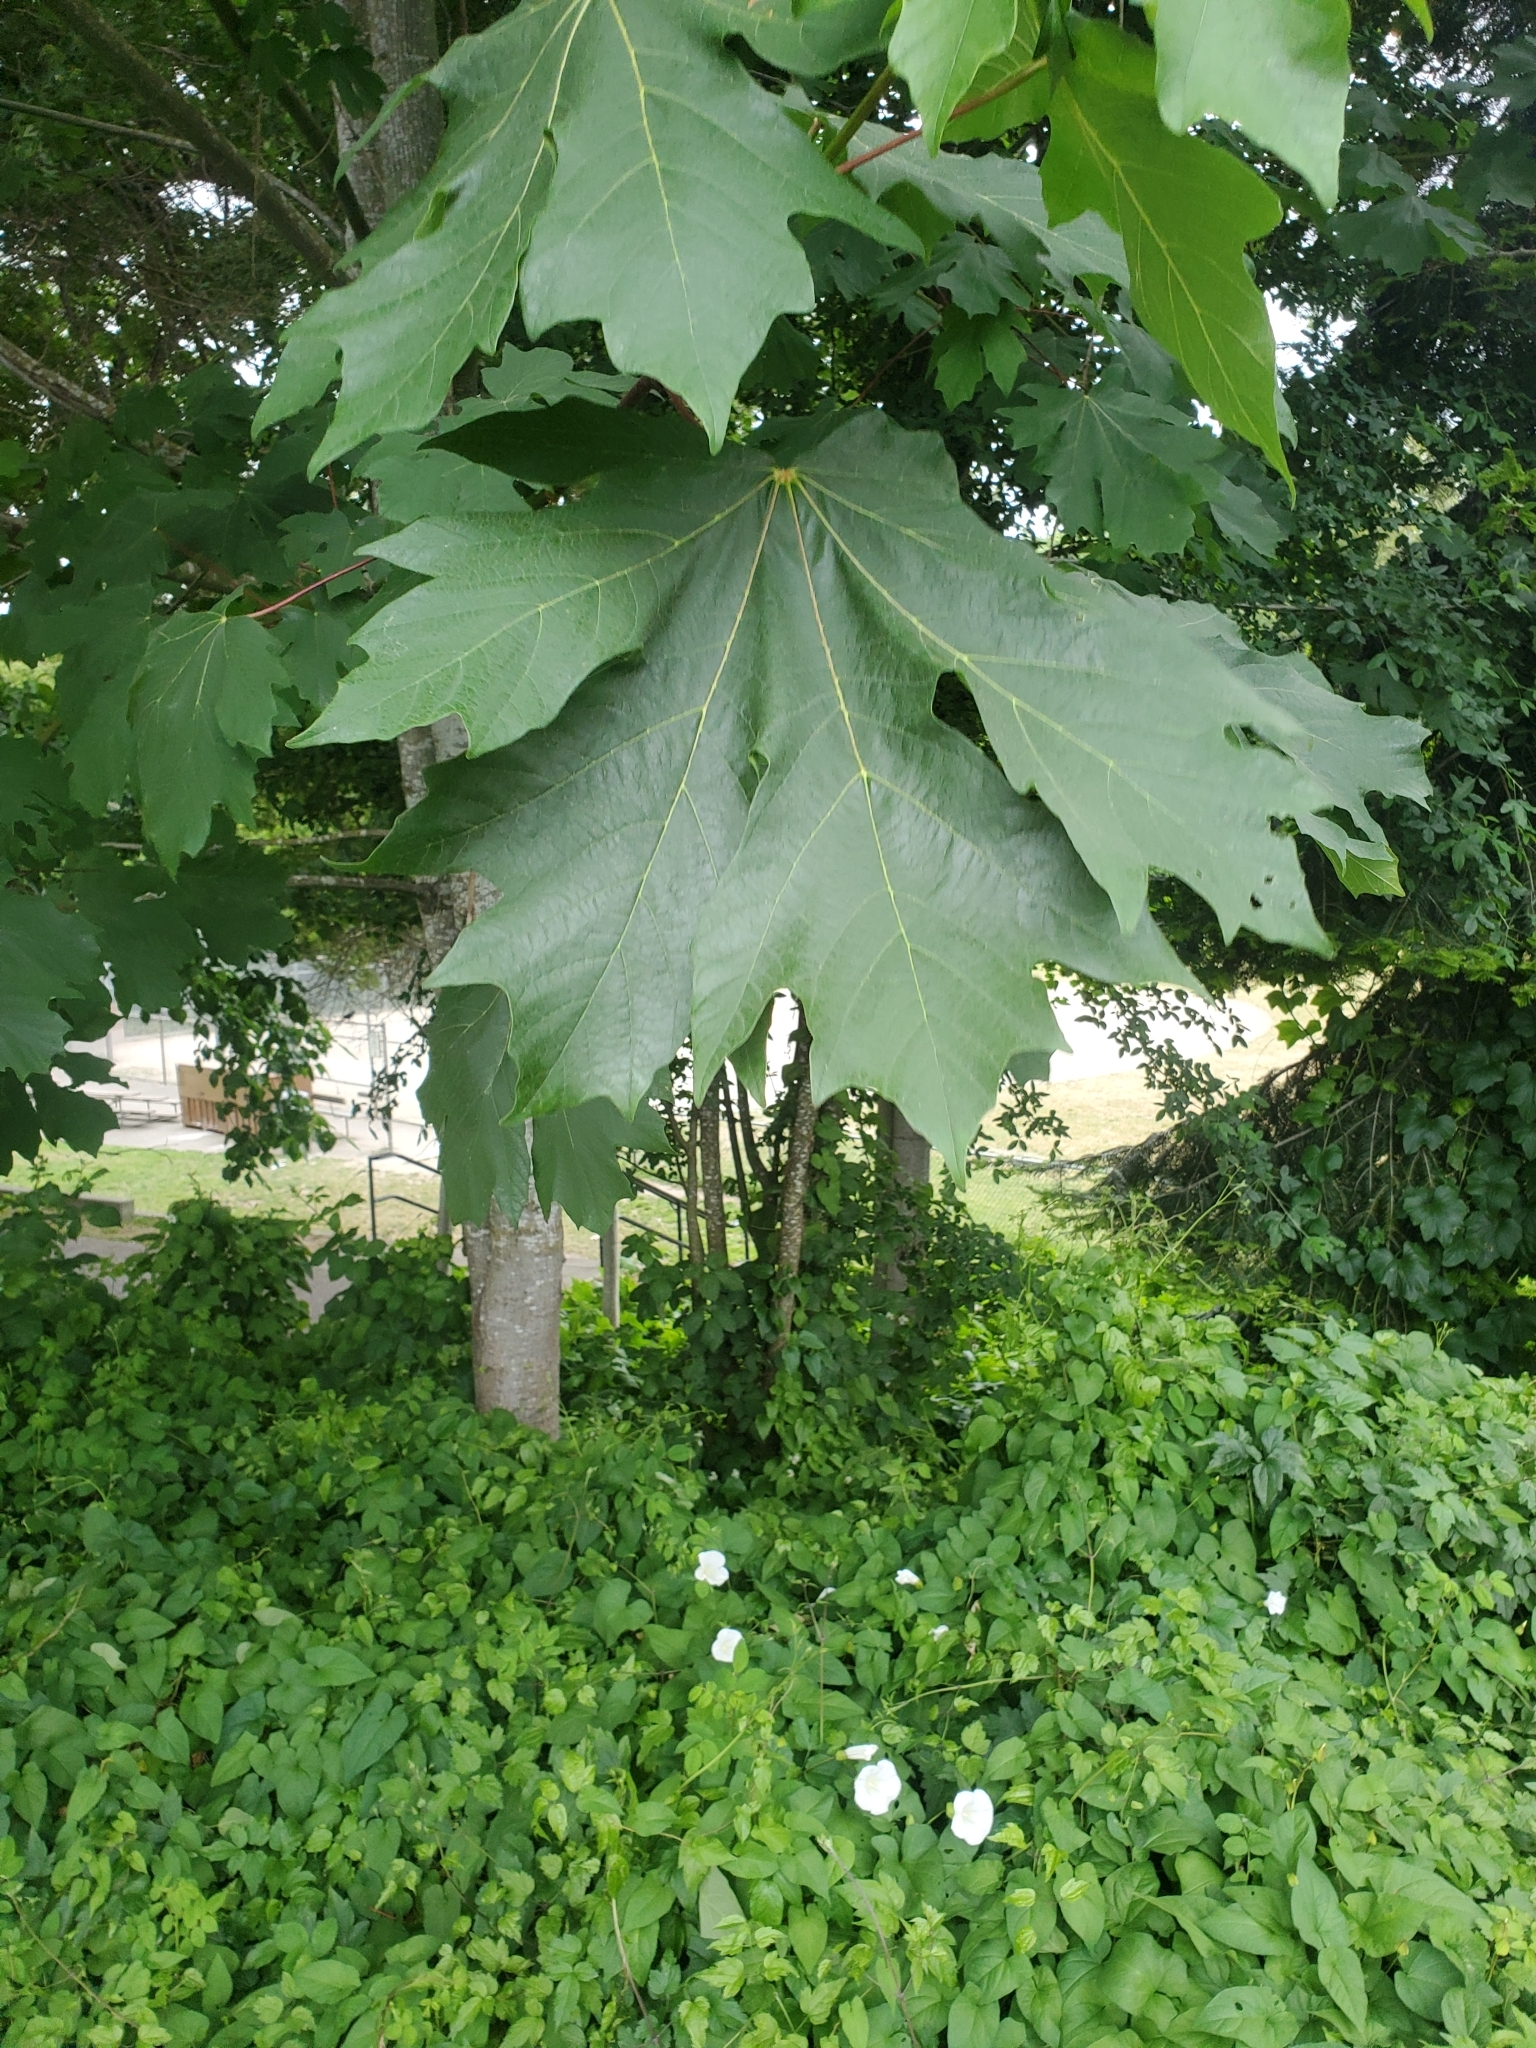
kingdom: Plantae
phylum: Tracheophyta
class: Magnoliopsida
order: Sapindales
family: Sapindaceae
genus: Acer
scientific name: Acer macrophyllum
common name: Oregon maple
